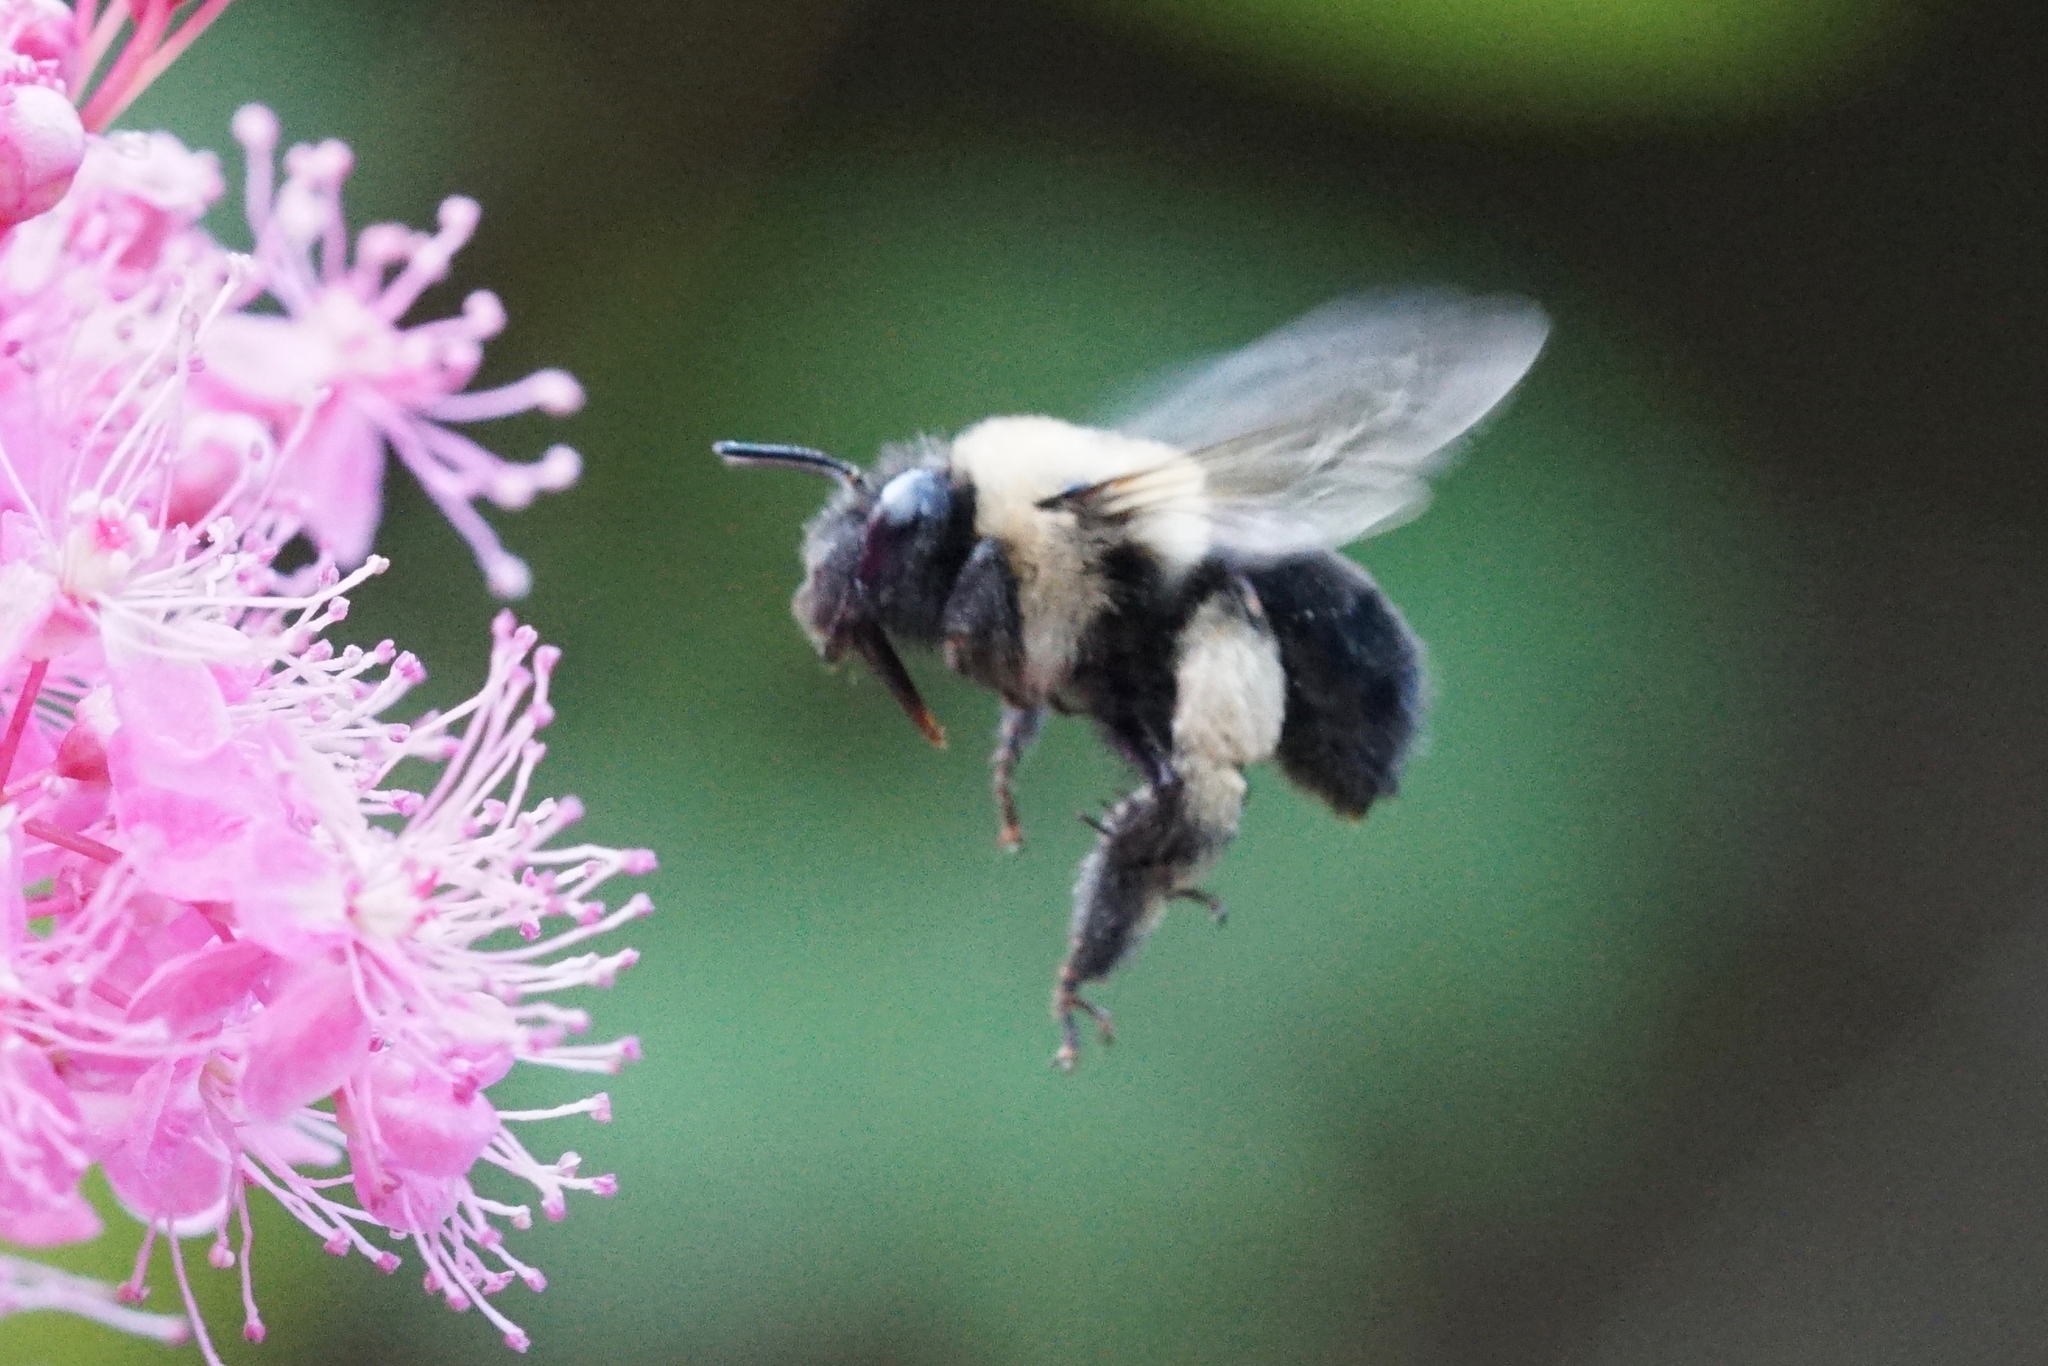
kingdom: Animalia
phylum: Arthropoda
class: Insecta
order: Hymenoptera
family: Apidae
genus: Anthophora
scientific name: Anthophora abrupta
